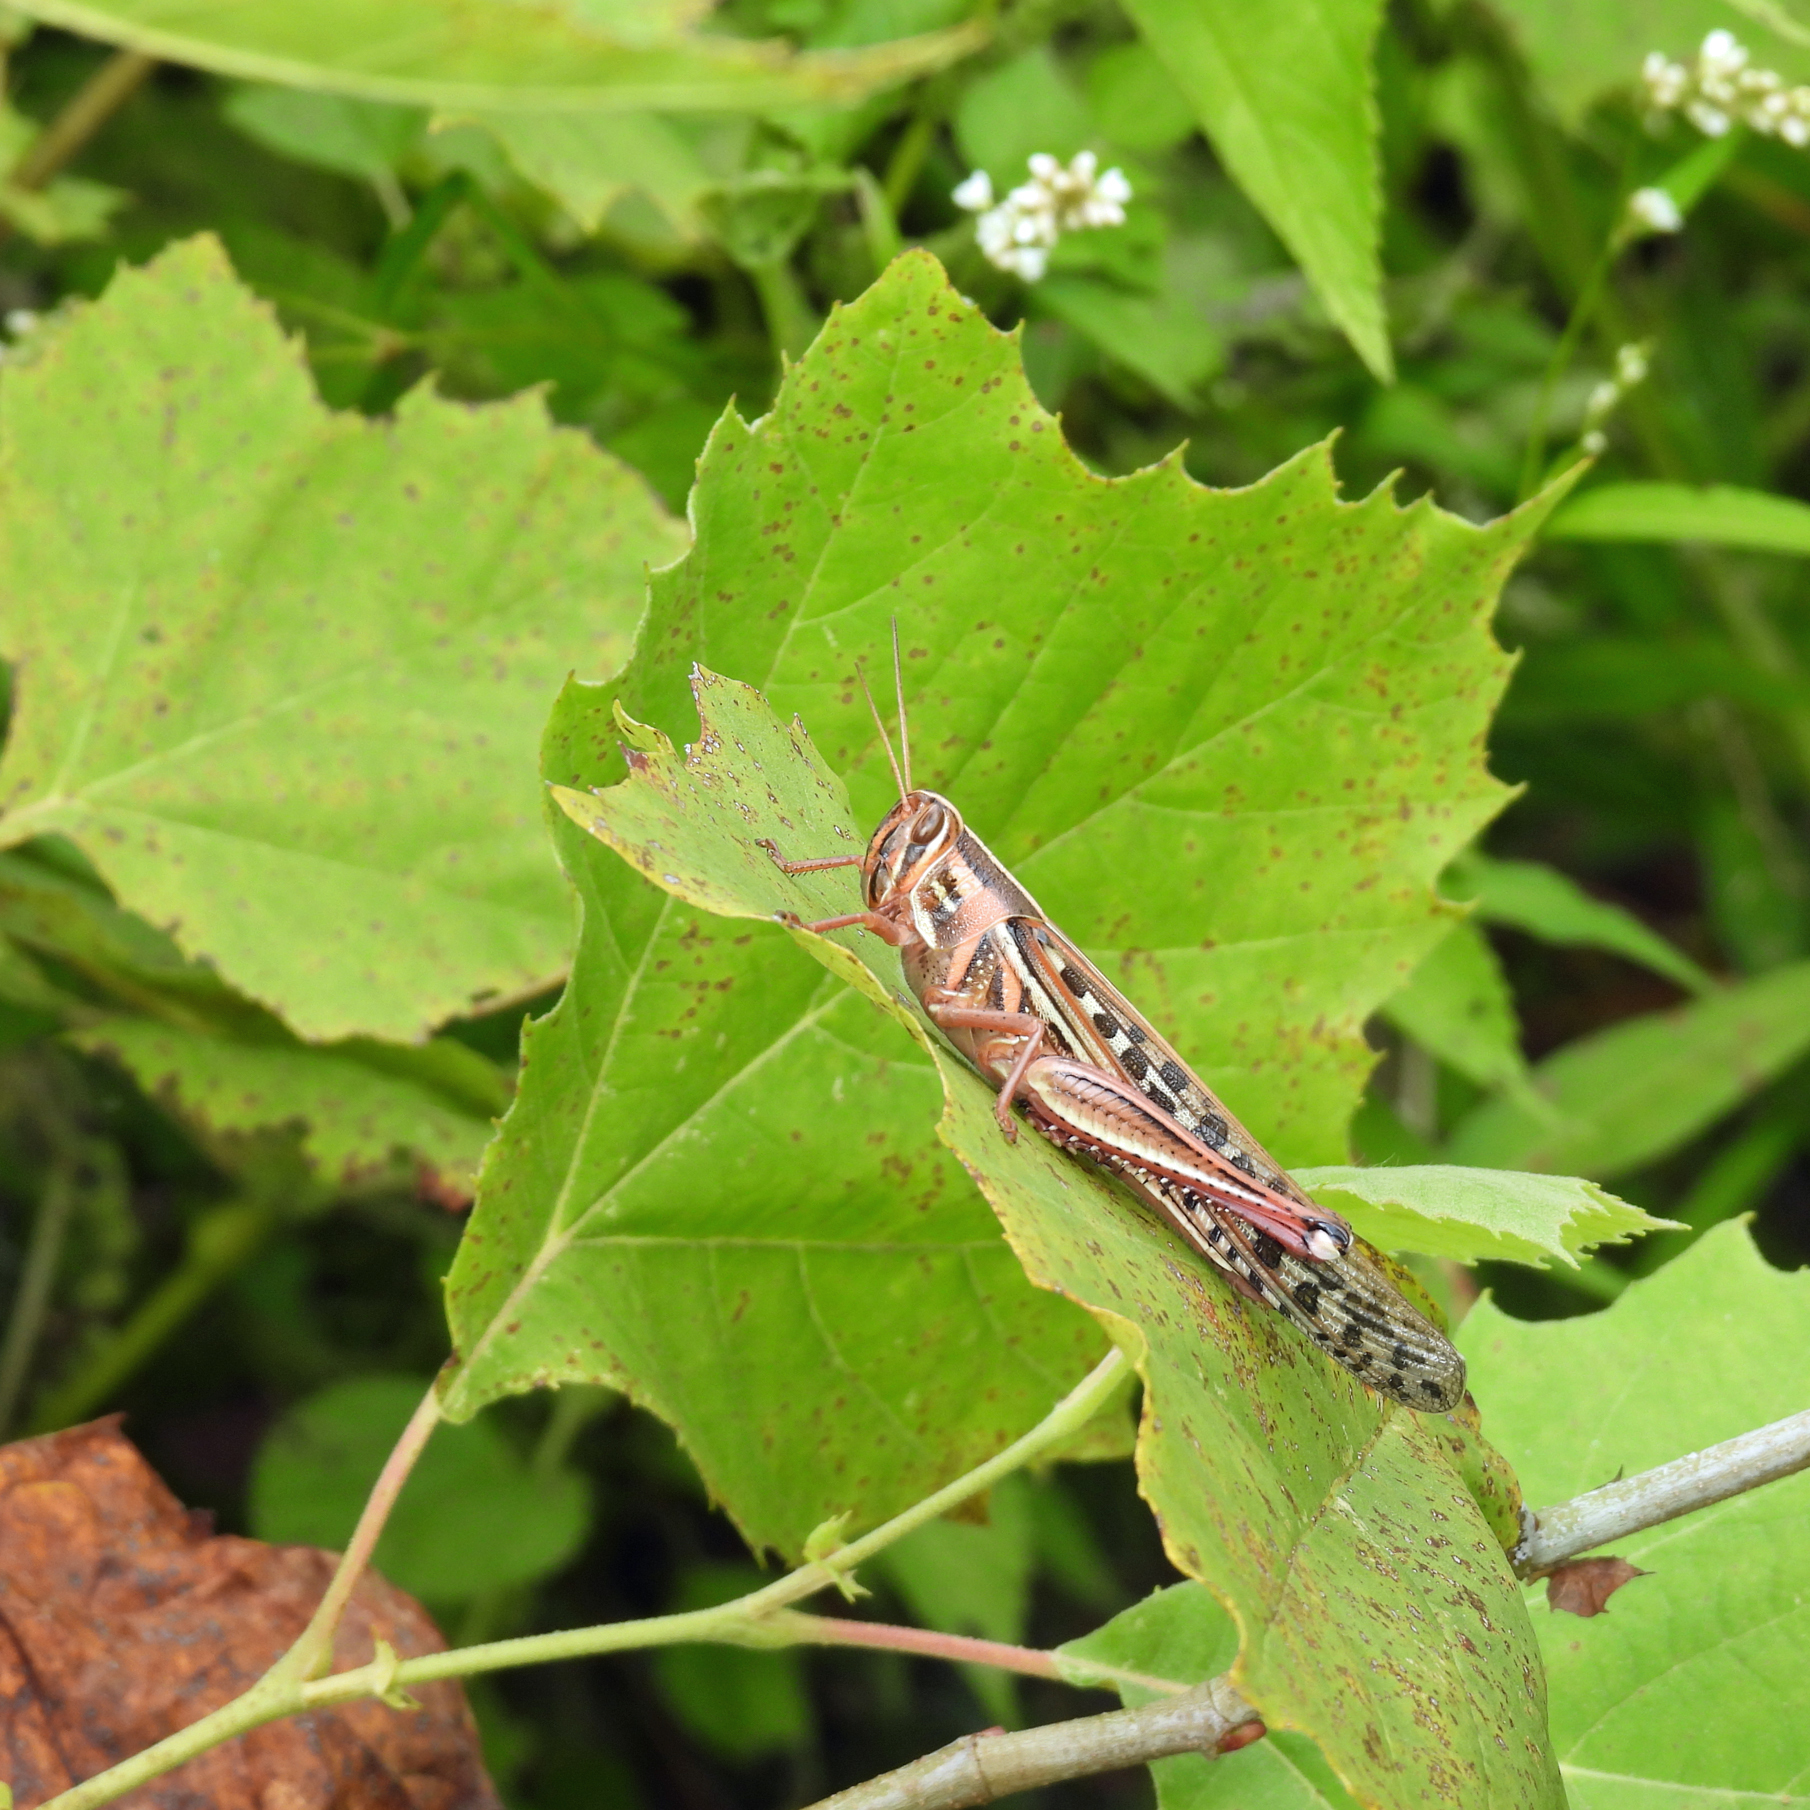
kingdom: Animalia
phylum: Arthropoda
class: Insecta
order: Orthoptera
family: Acrididae
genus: Schistocerca
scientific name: Schistocerca americana
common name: American bird locust
